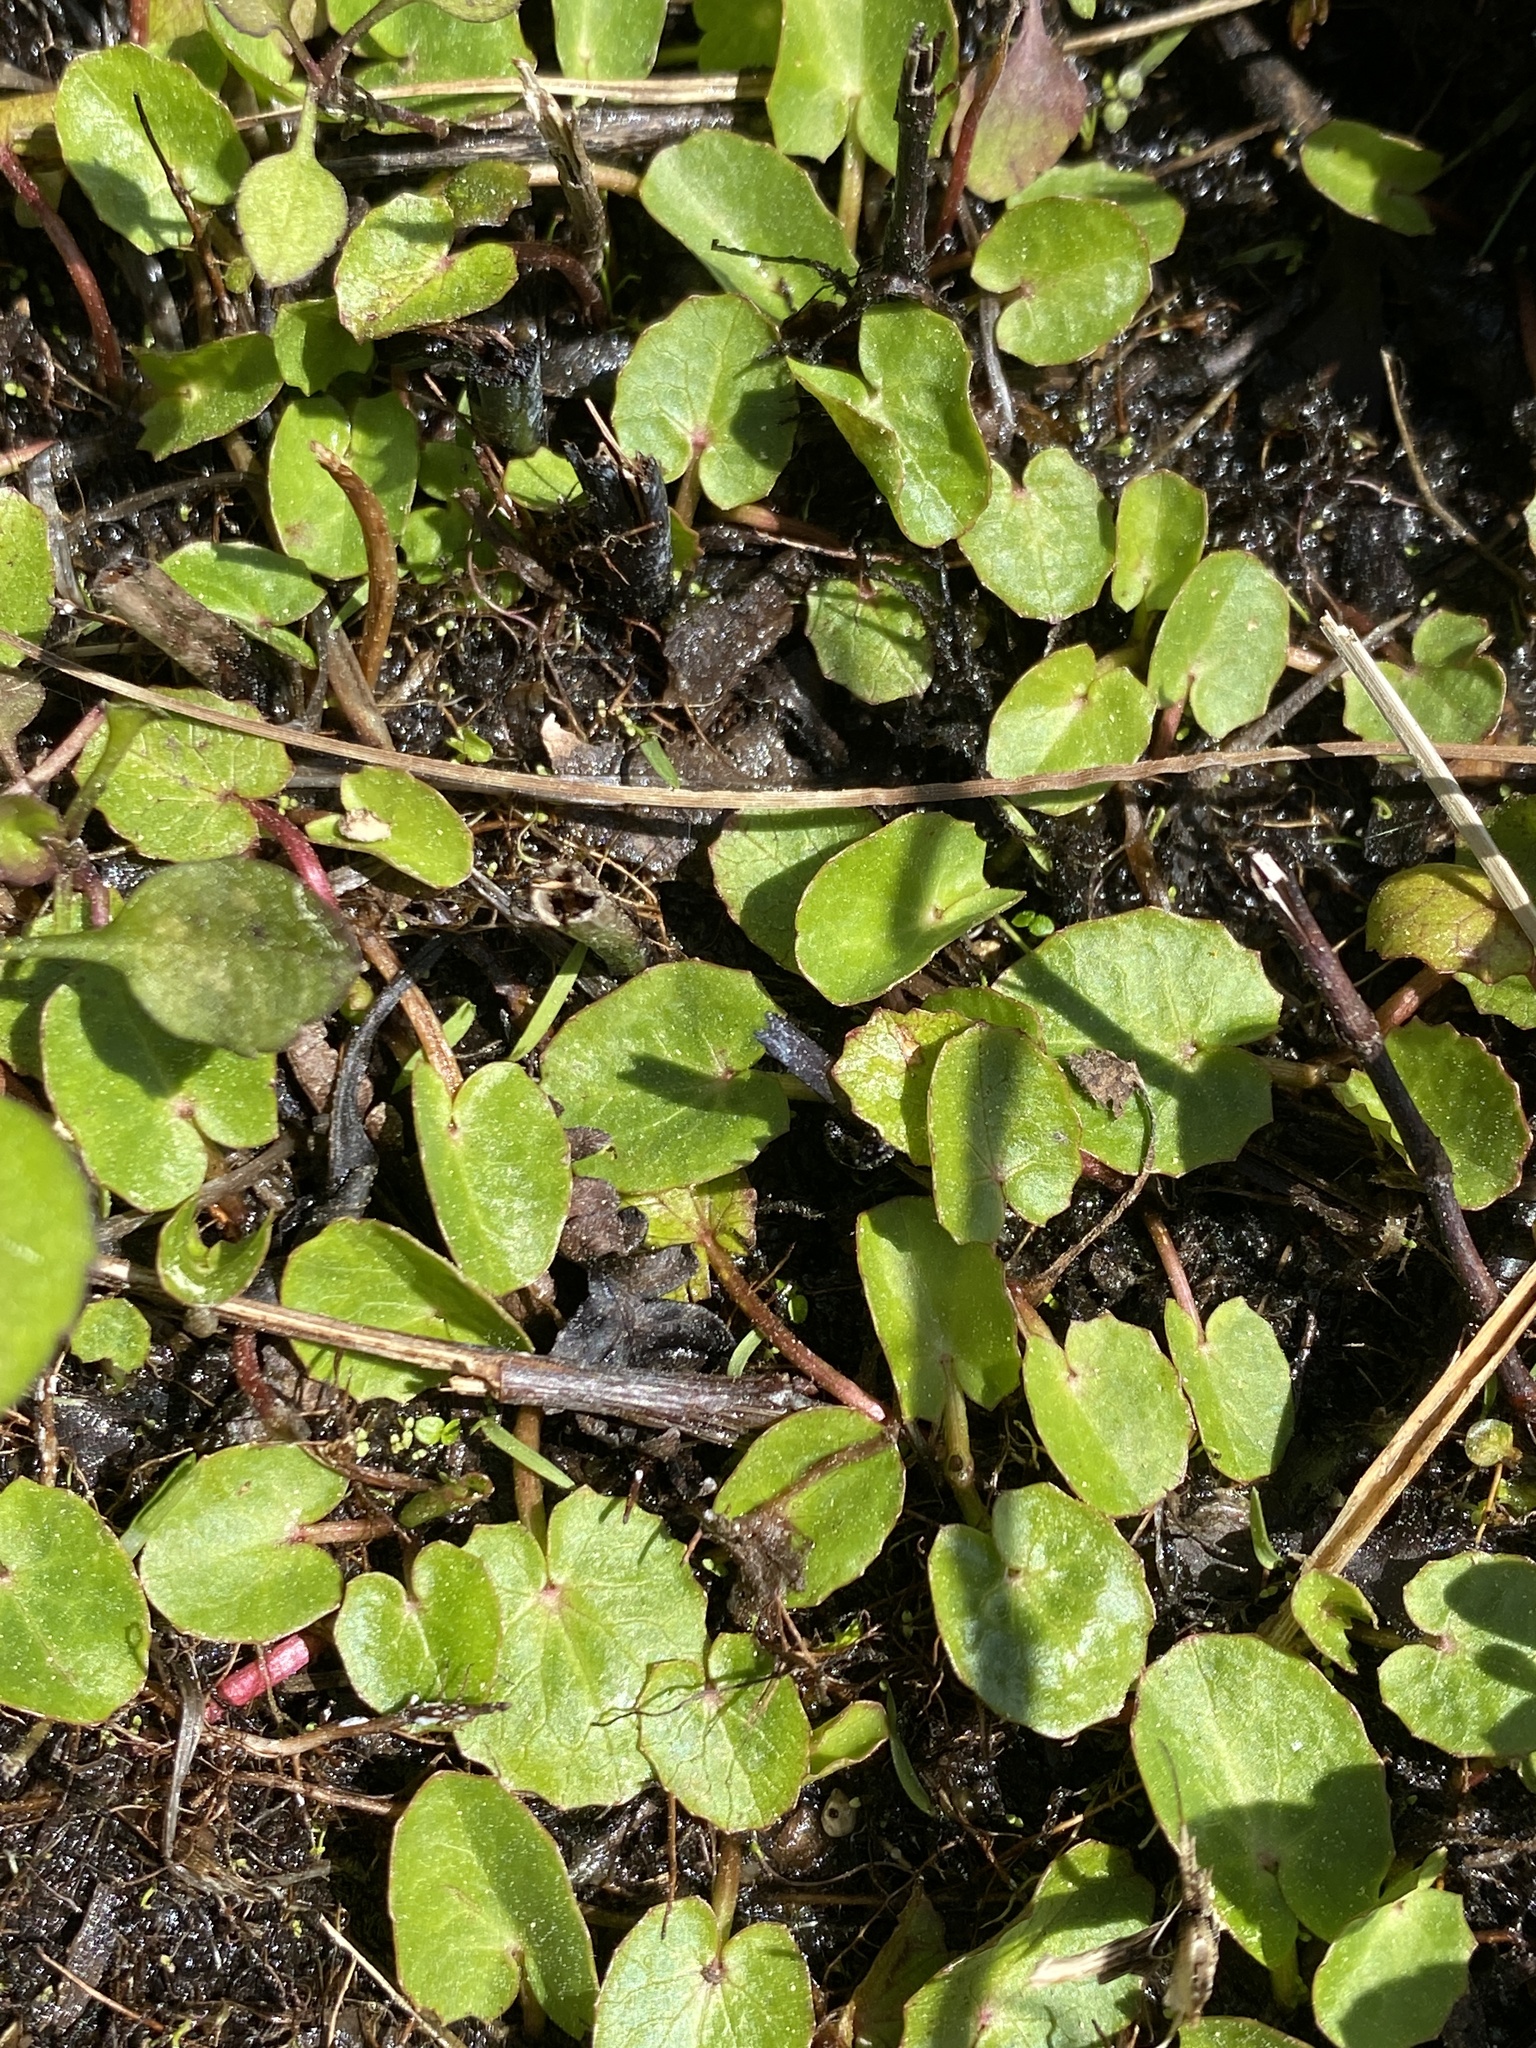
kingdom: Plantae
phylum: Tracheophyta
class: Magnoliopsida
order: Apiales
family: Apiaceae
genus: Centella
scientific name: Centella erecta
